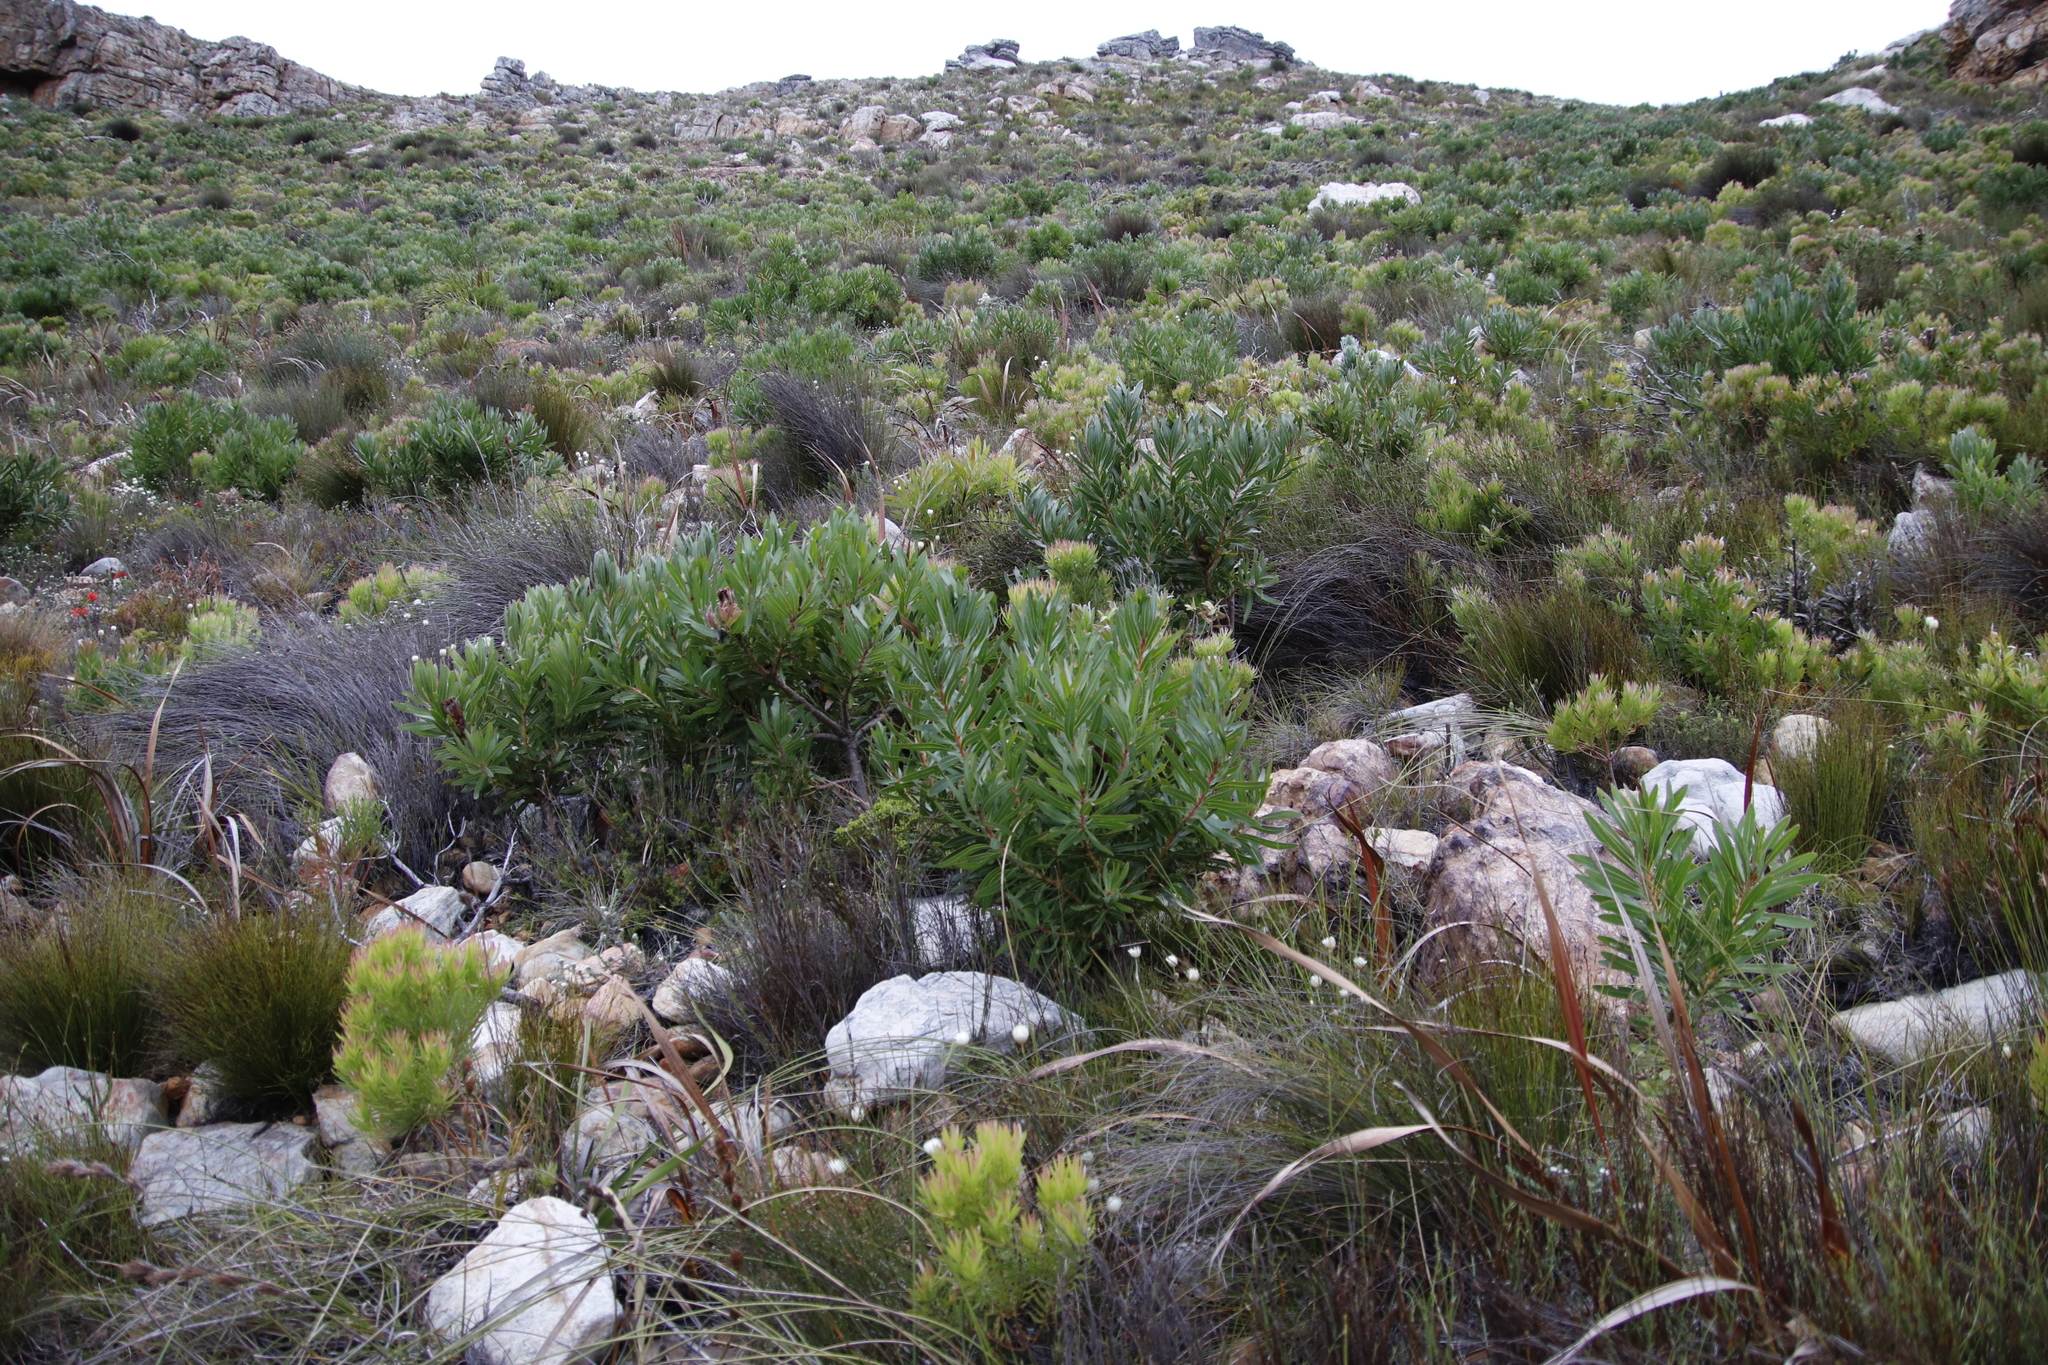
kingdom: Plantae
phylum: Tracheophyta
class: Magnoliopsida
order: Proteales
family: Proteaceae
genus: Protea
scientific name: Protea lepidocarpodendron
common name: Black-bearded protea
